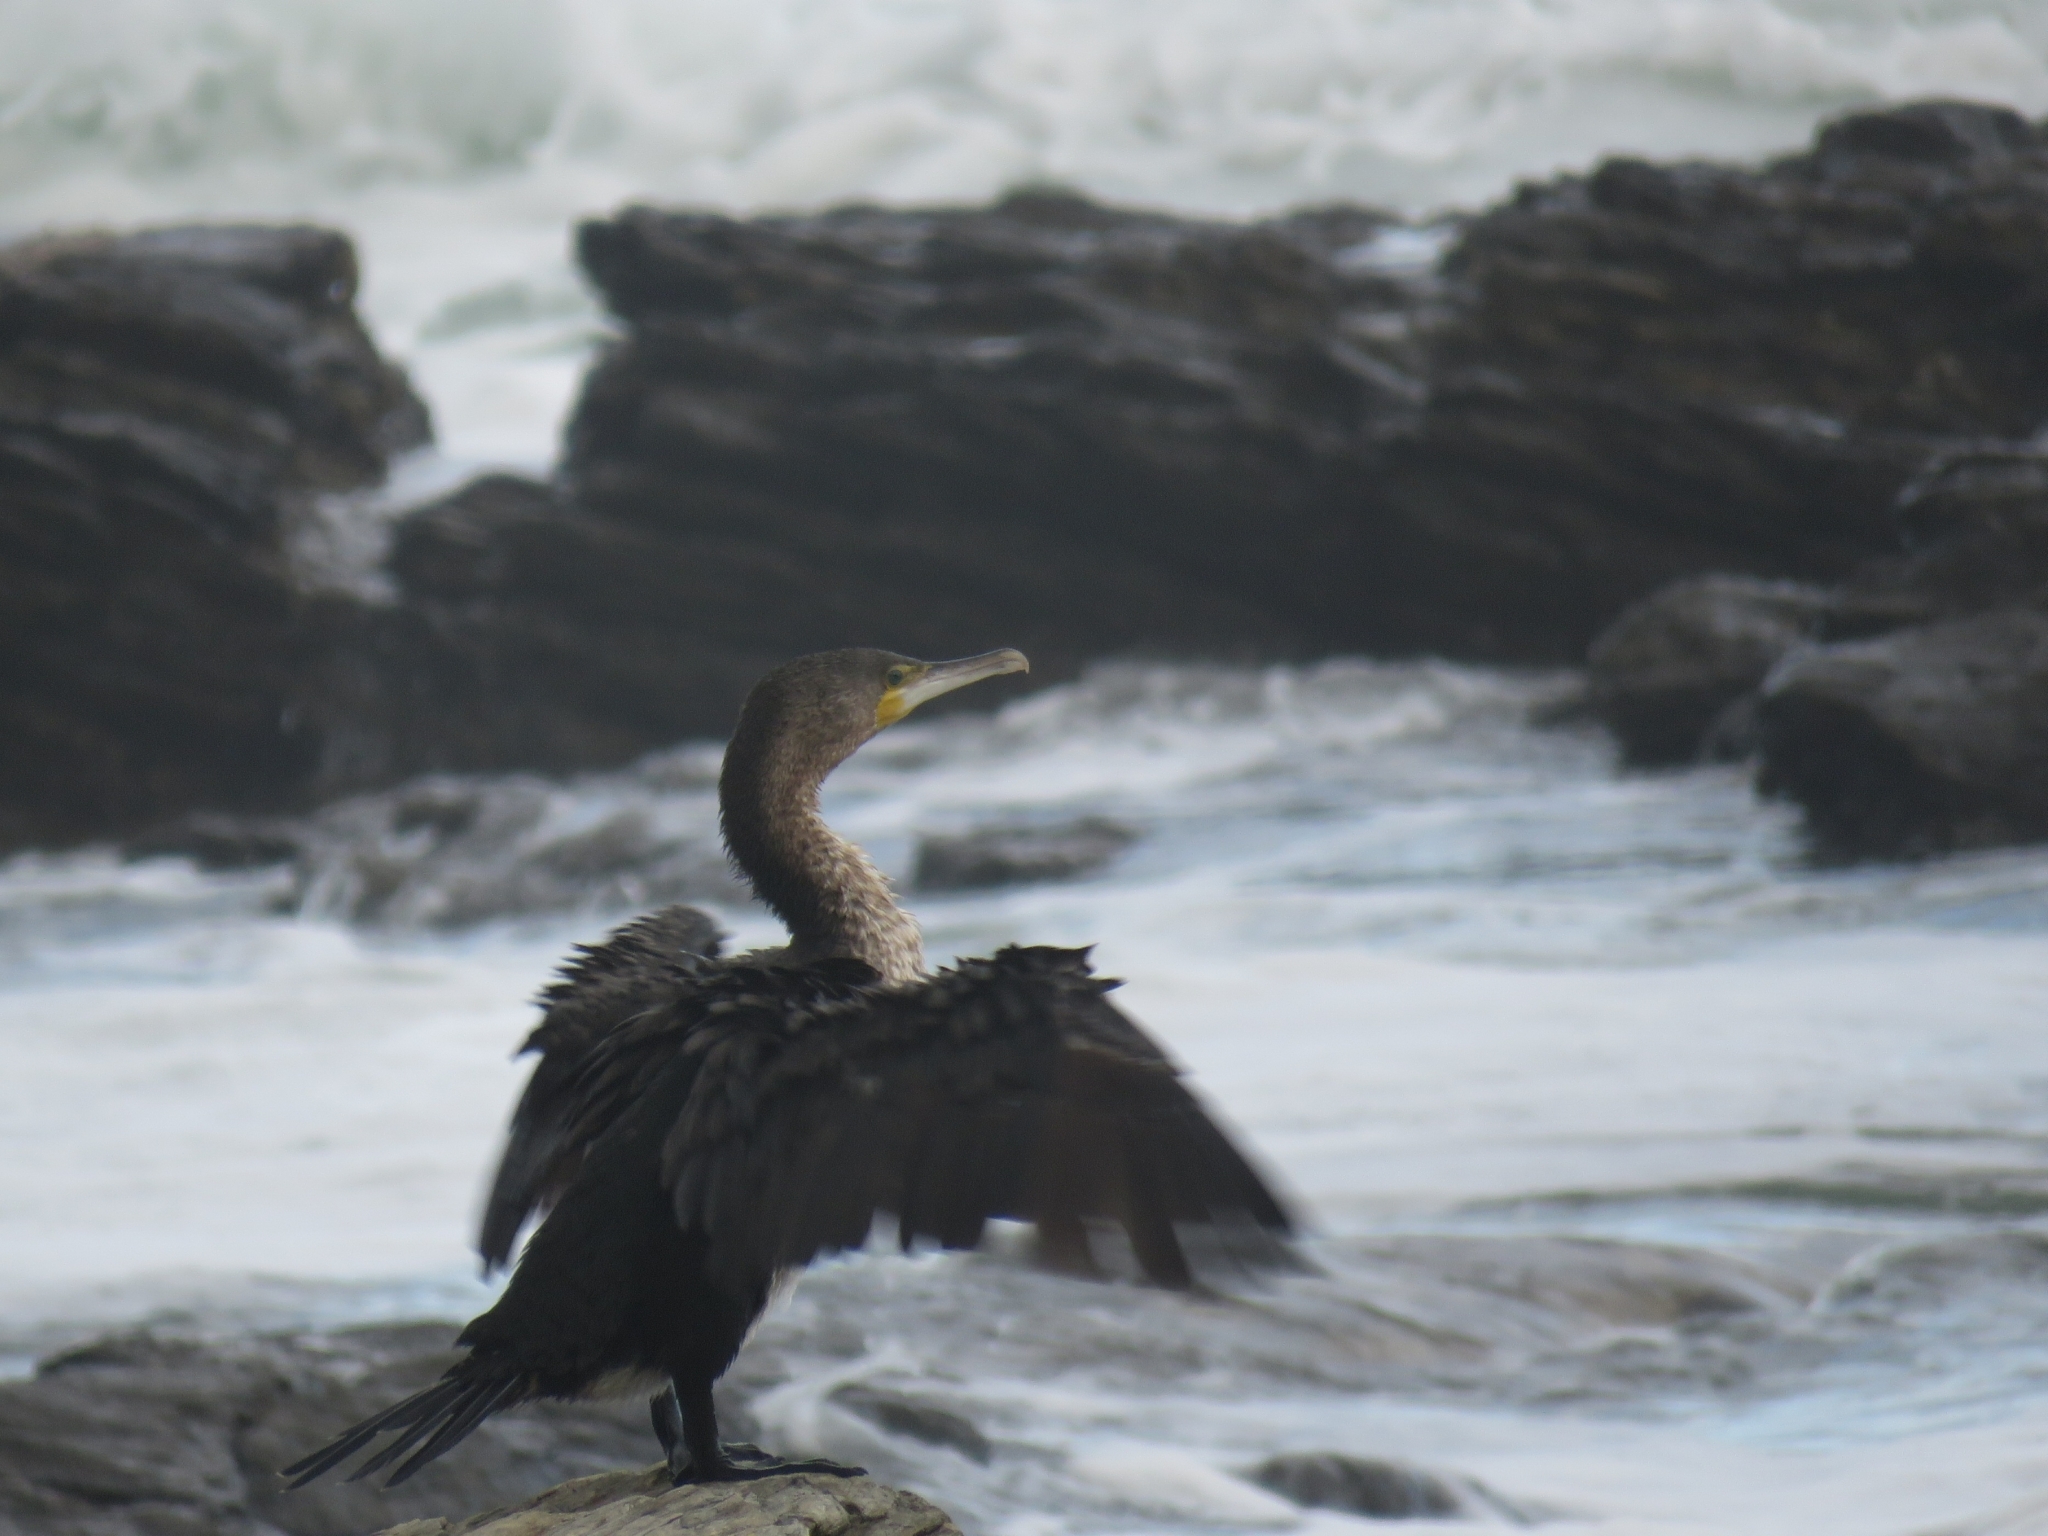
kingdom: Animalia
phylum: Chordata
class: Aves
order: Suliformes
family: Phalacrocoracidae
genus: Phalacrocorax
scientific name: Phalacrocorax capensis
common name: Cape cormorant
